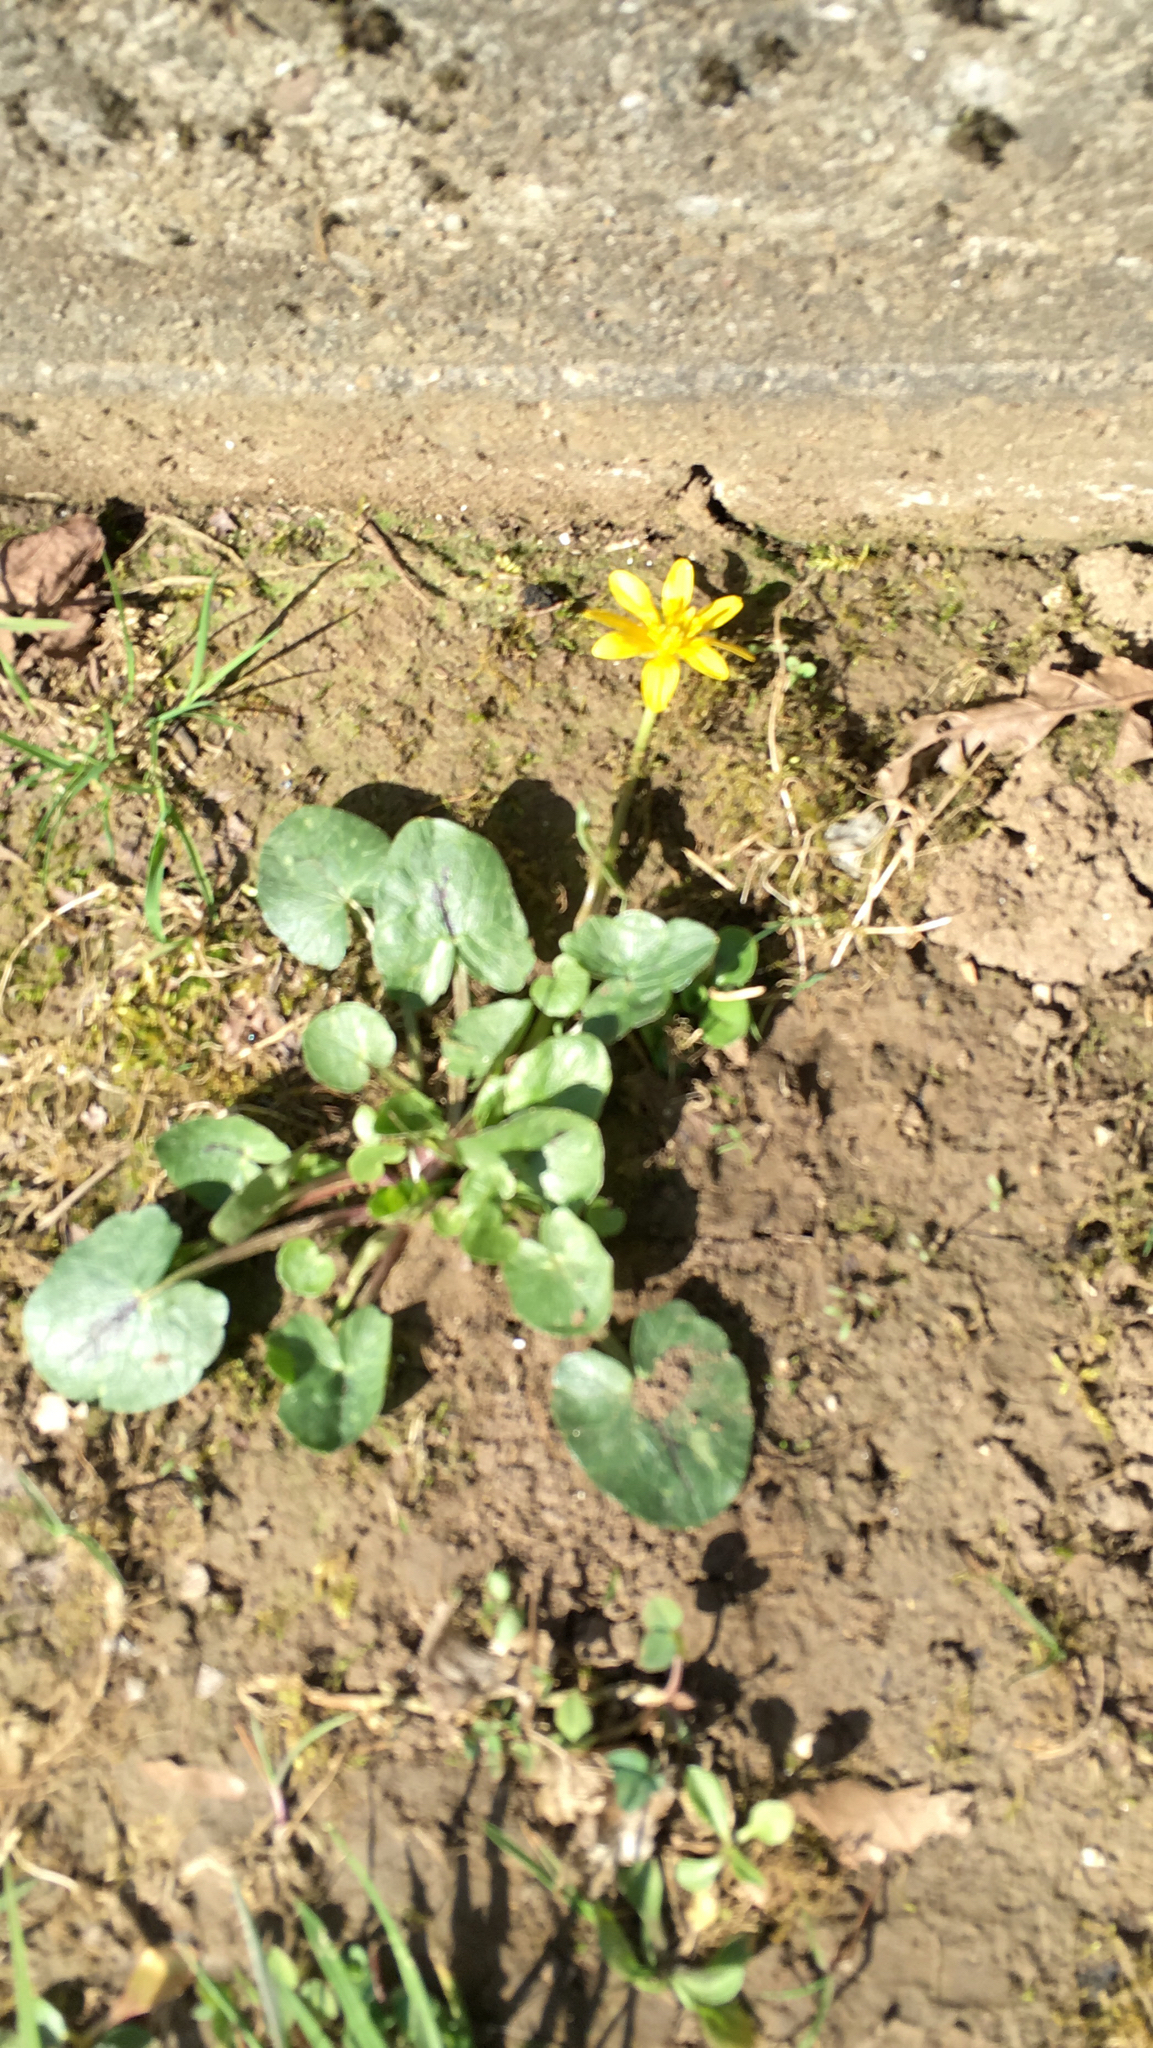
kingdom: Plantae
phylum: Tracheophyta
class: Magnoliopsida
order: Ranunculales
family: Ranunculaceae
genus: Ficaria
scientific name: Ficaria verna
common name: Lesser celandine
